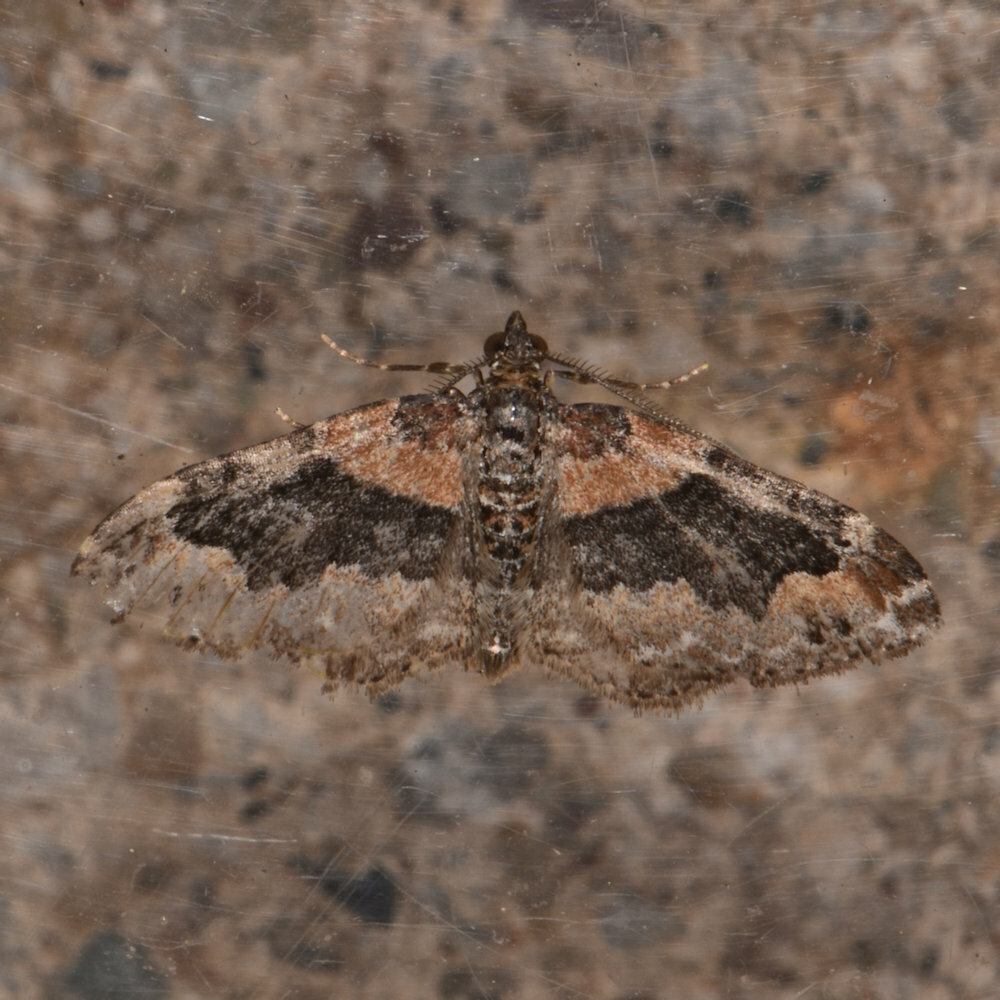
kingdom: Animalia
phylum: Arthropoda
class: Insecta
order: Lepidoptera
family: Geometridae
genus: Xanthorhoe
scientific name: Xanthorhoe ferrugata
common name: Dark-barred twin-spot carpet
